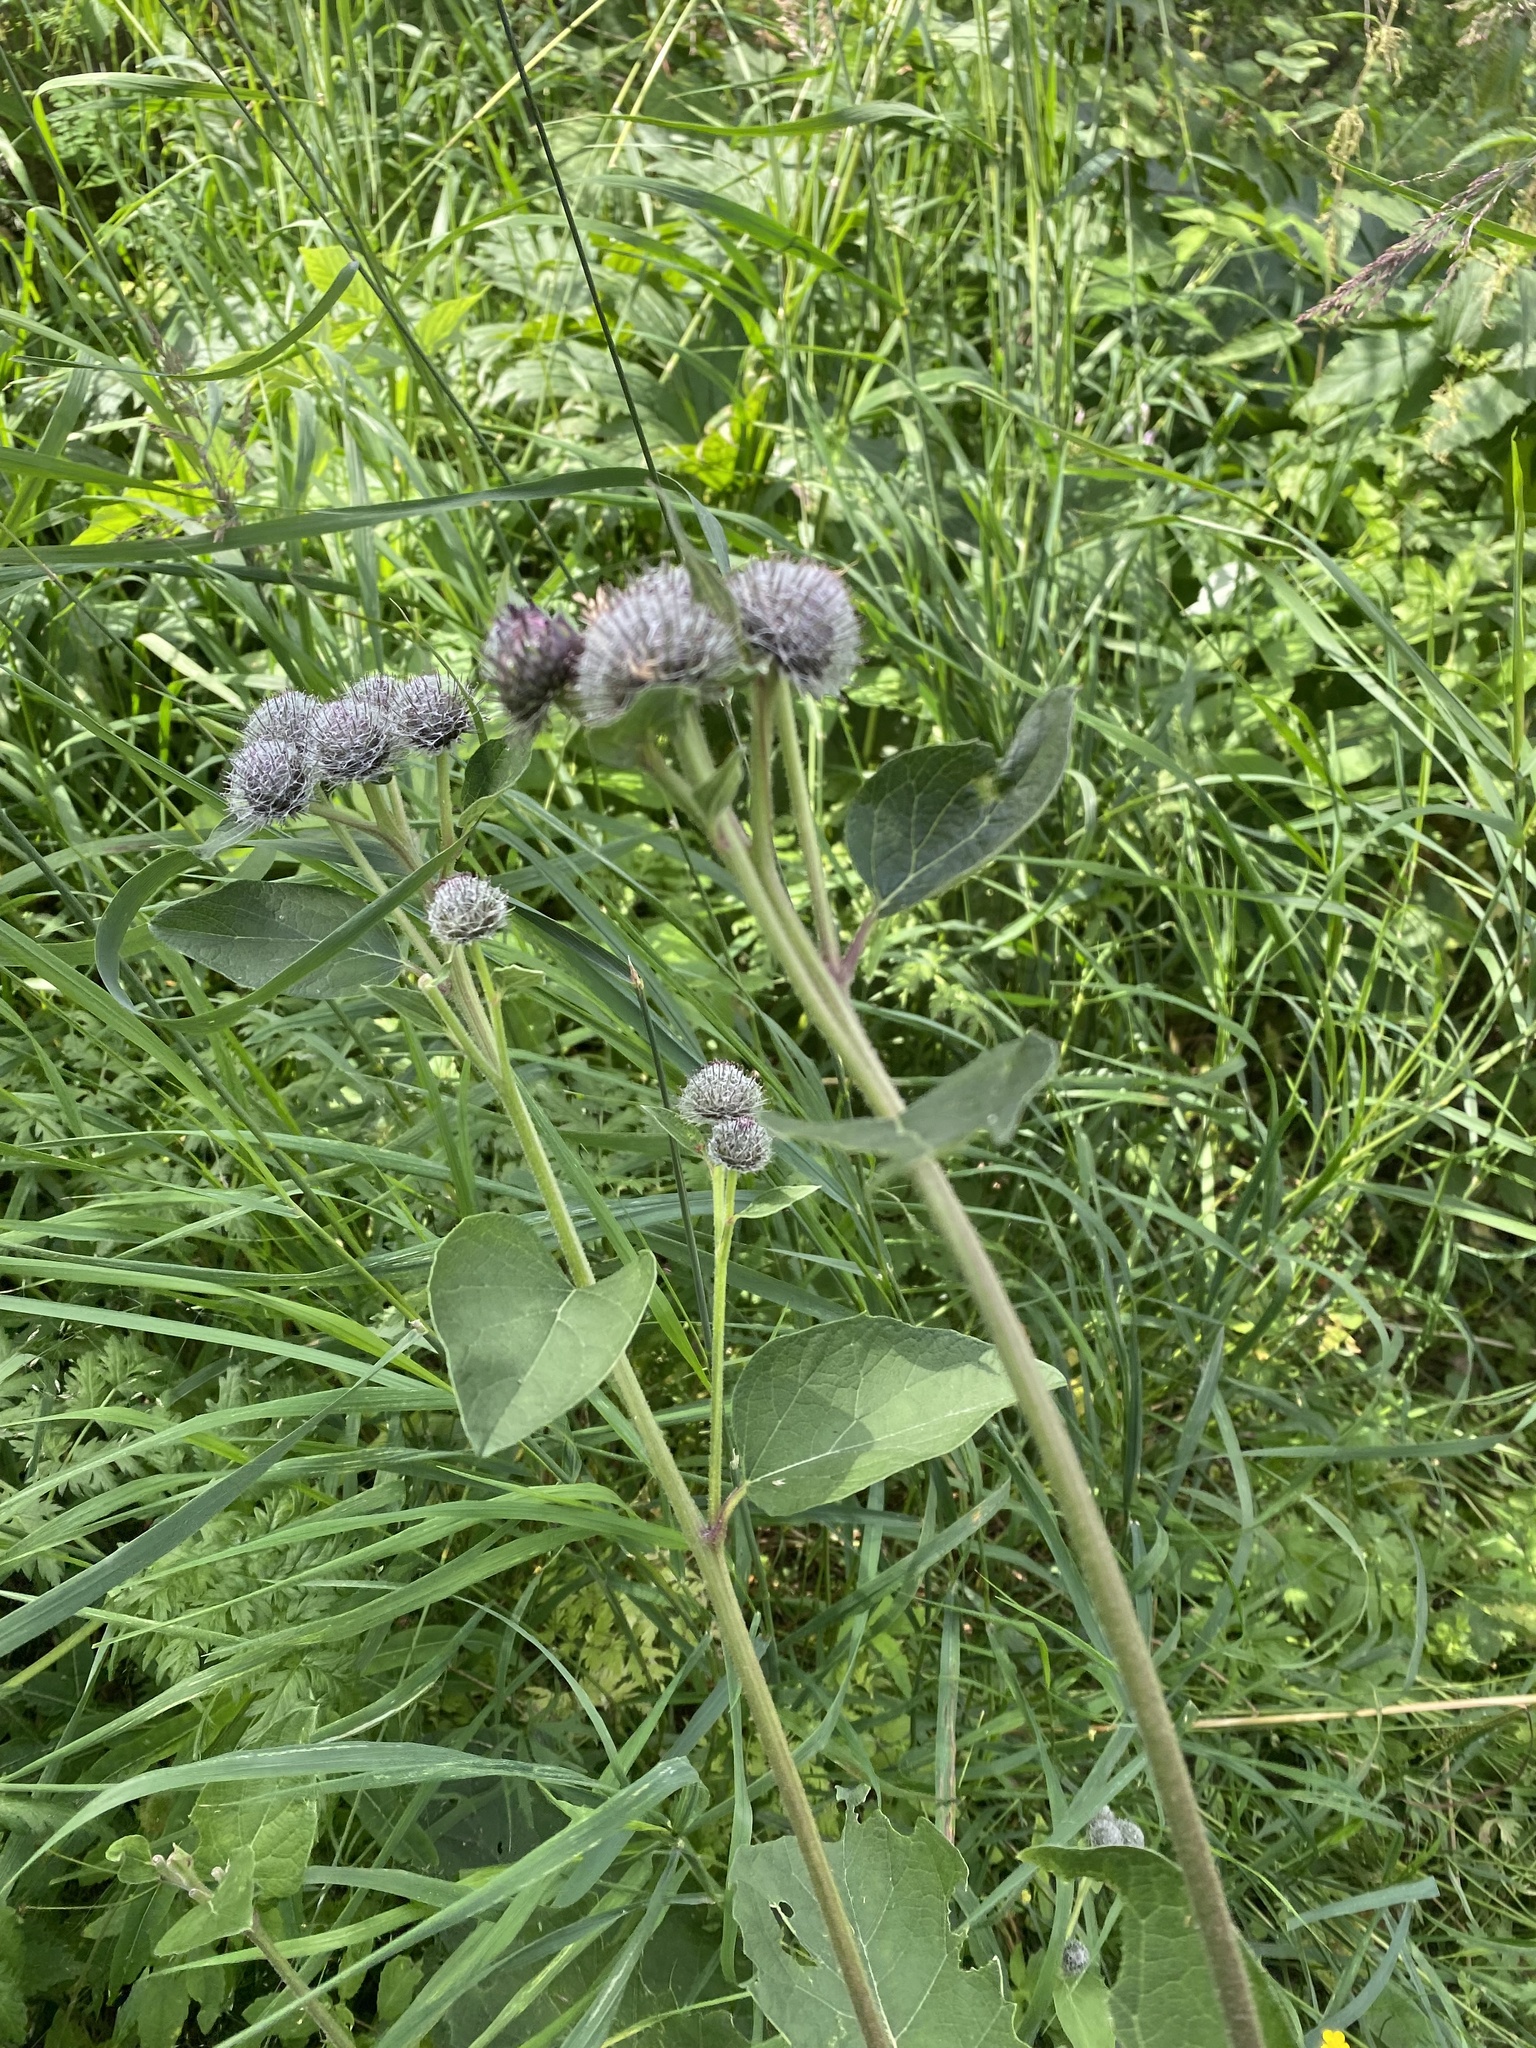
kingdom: Plantae
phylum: Tracheophyta
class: Magnoliopsida
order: Asterales
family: Asteraceae
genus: Arctium
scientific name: Arctium tomentosum
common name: Woolly burdock
